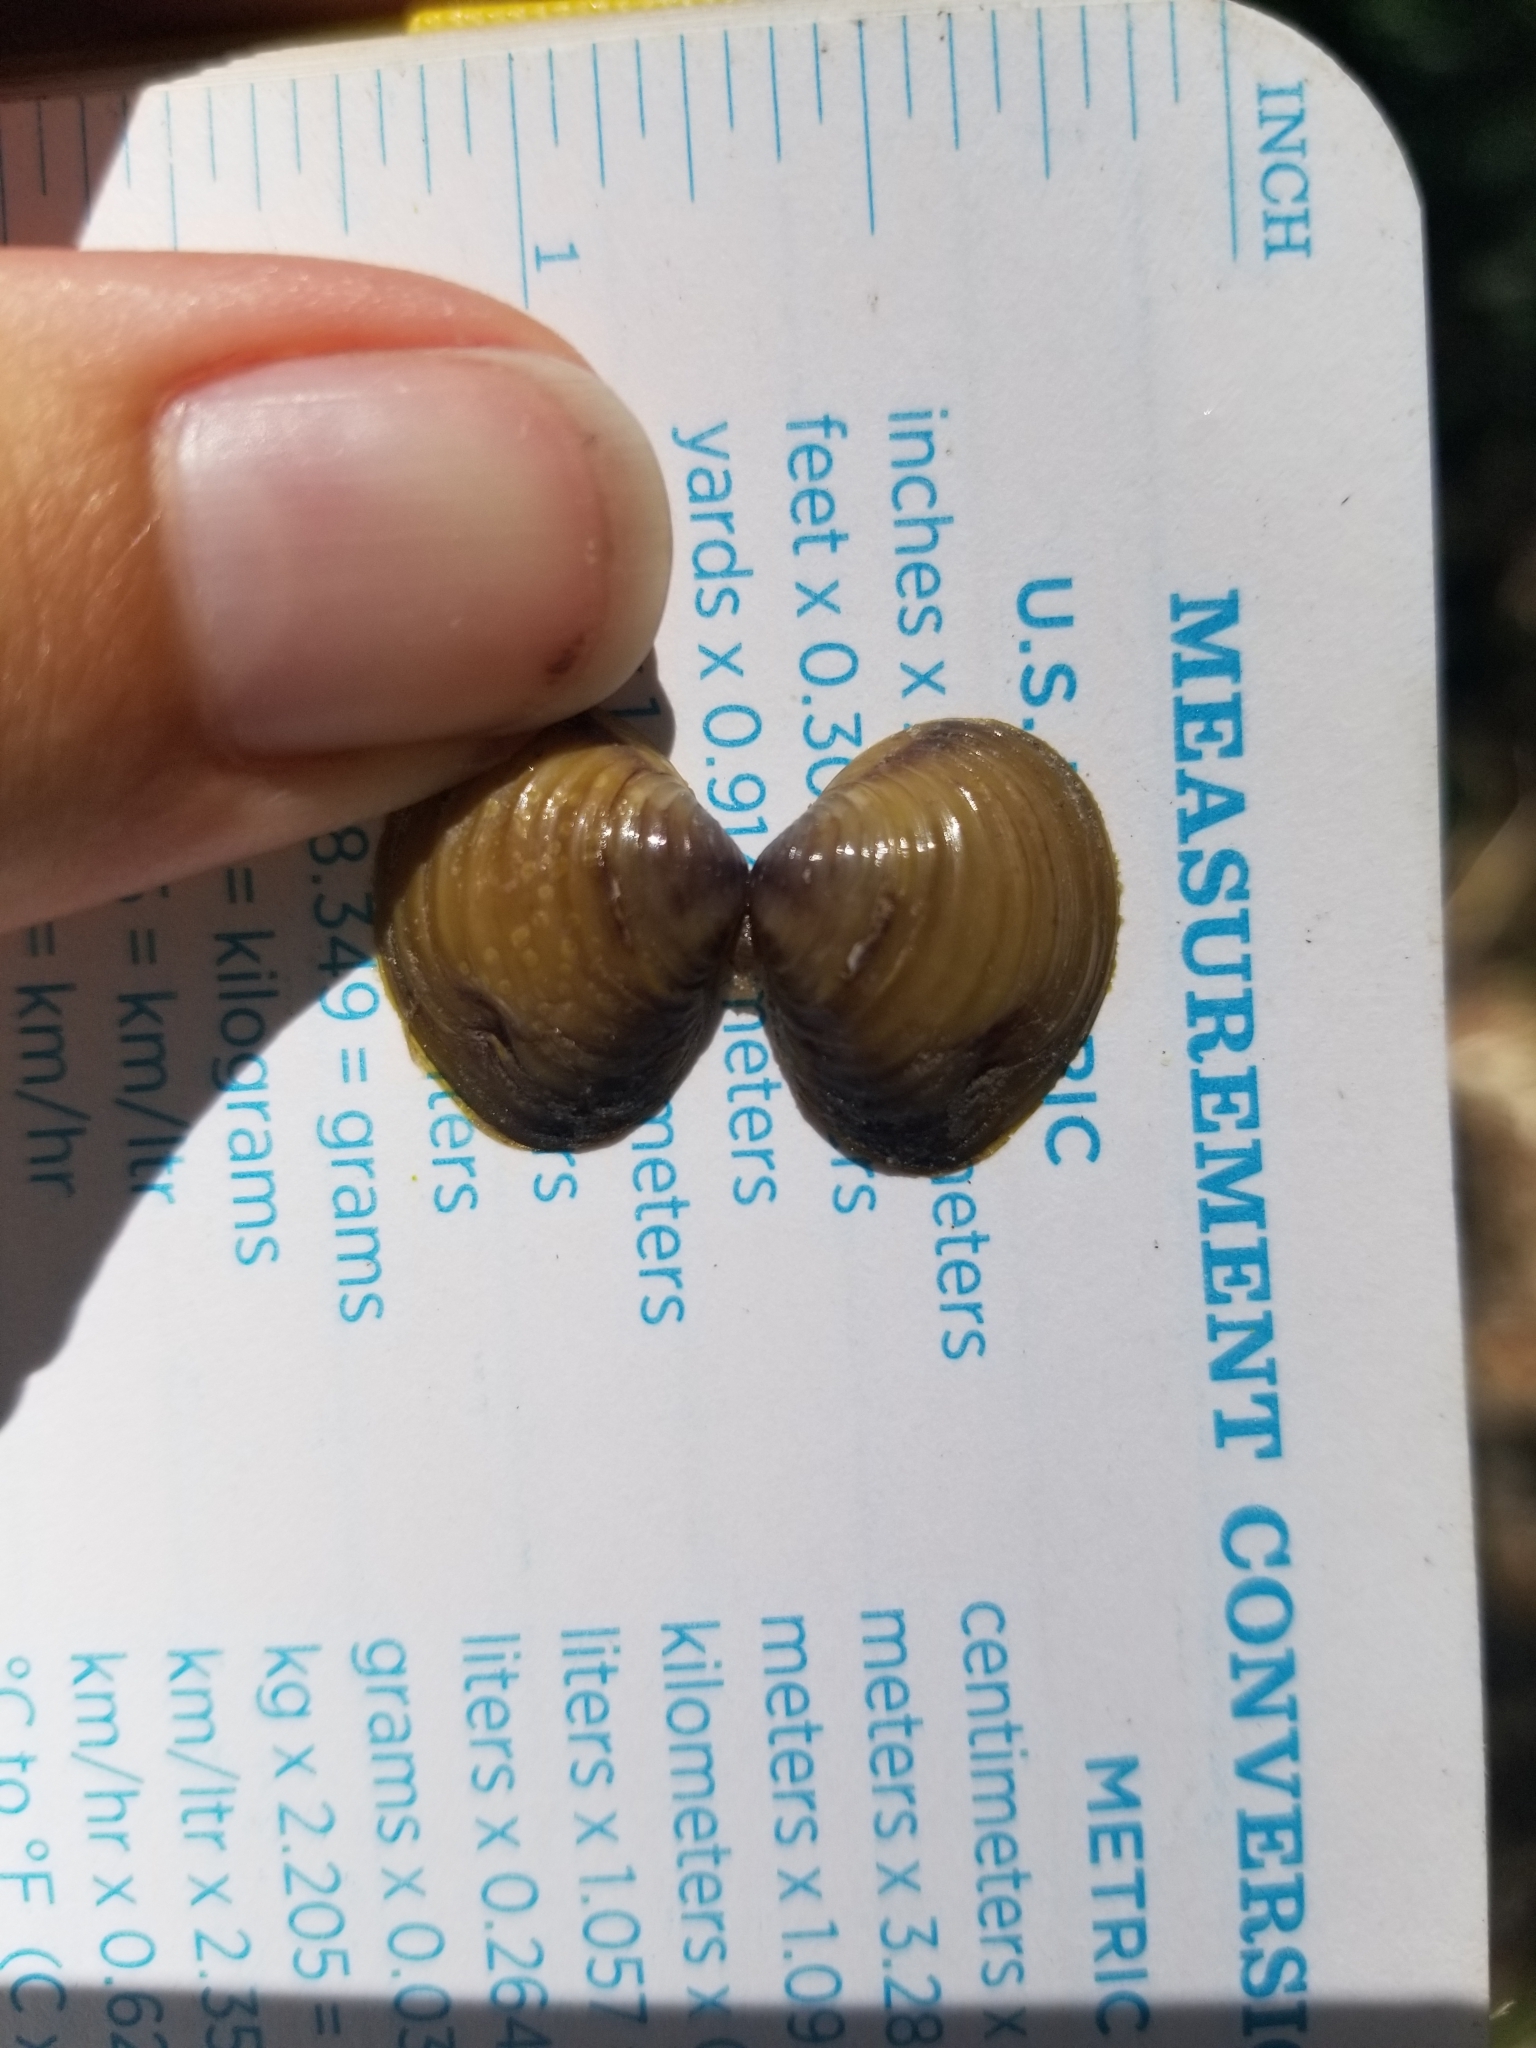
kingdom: Animalia
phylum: Mollusca
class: Bivalvia
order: Venerida
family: Cyrenidae
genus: Corbicula
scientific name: Corbicula fluminea
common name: Asian clam
